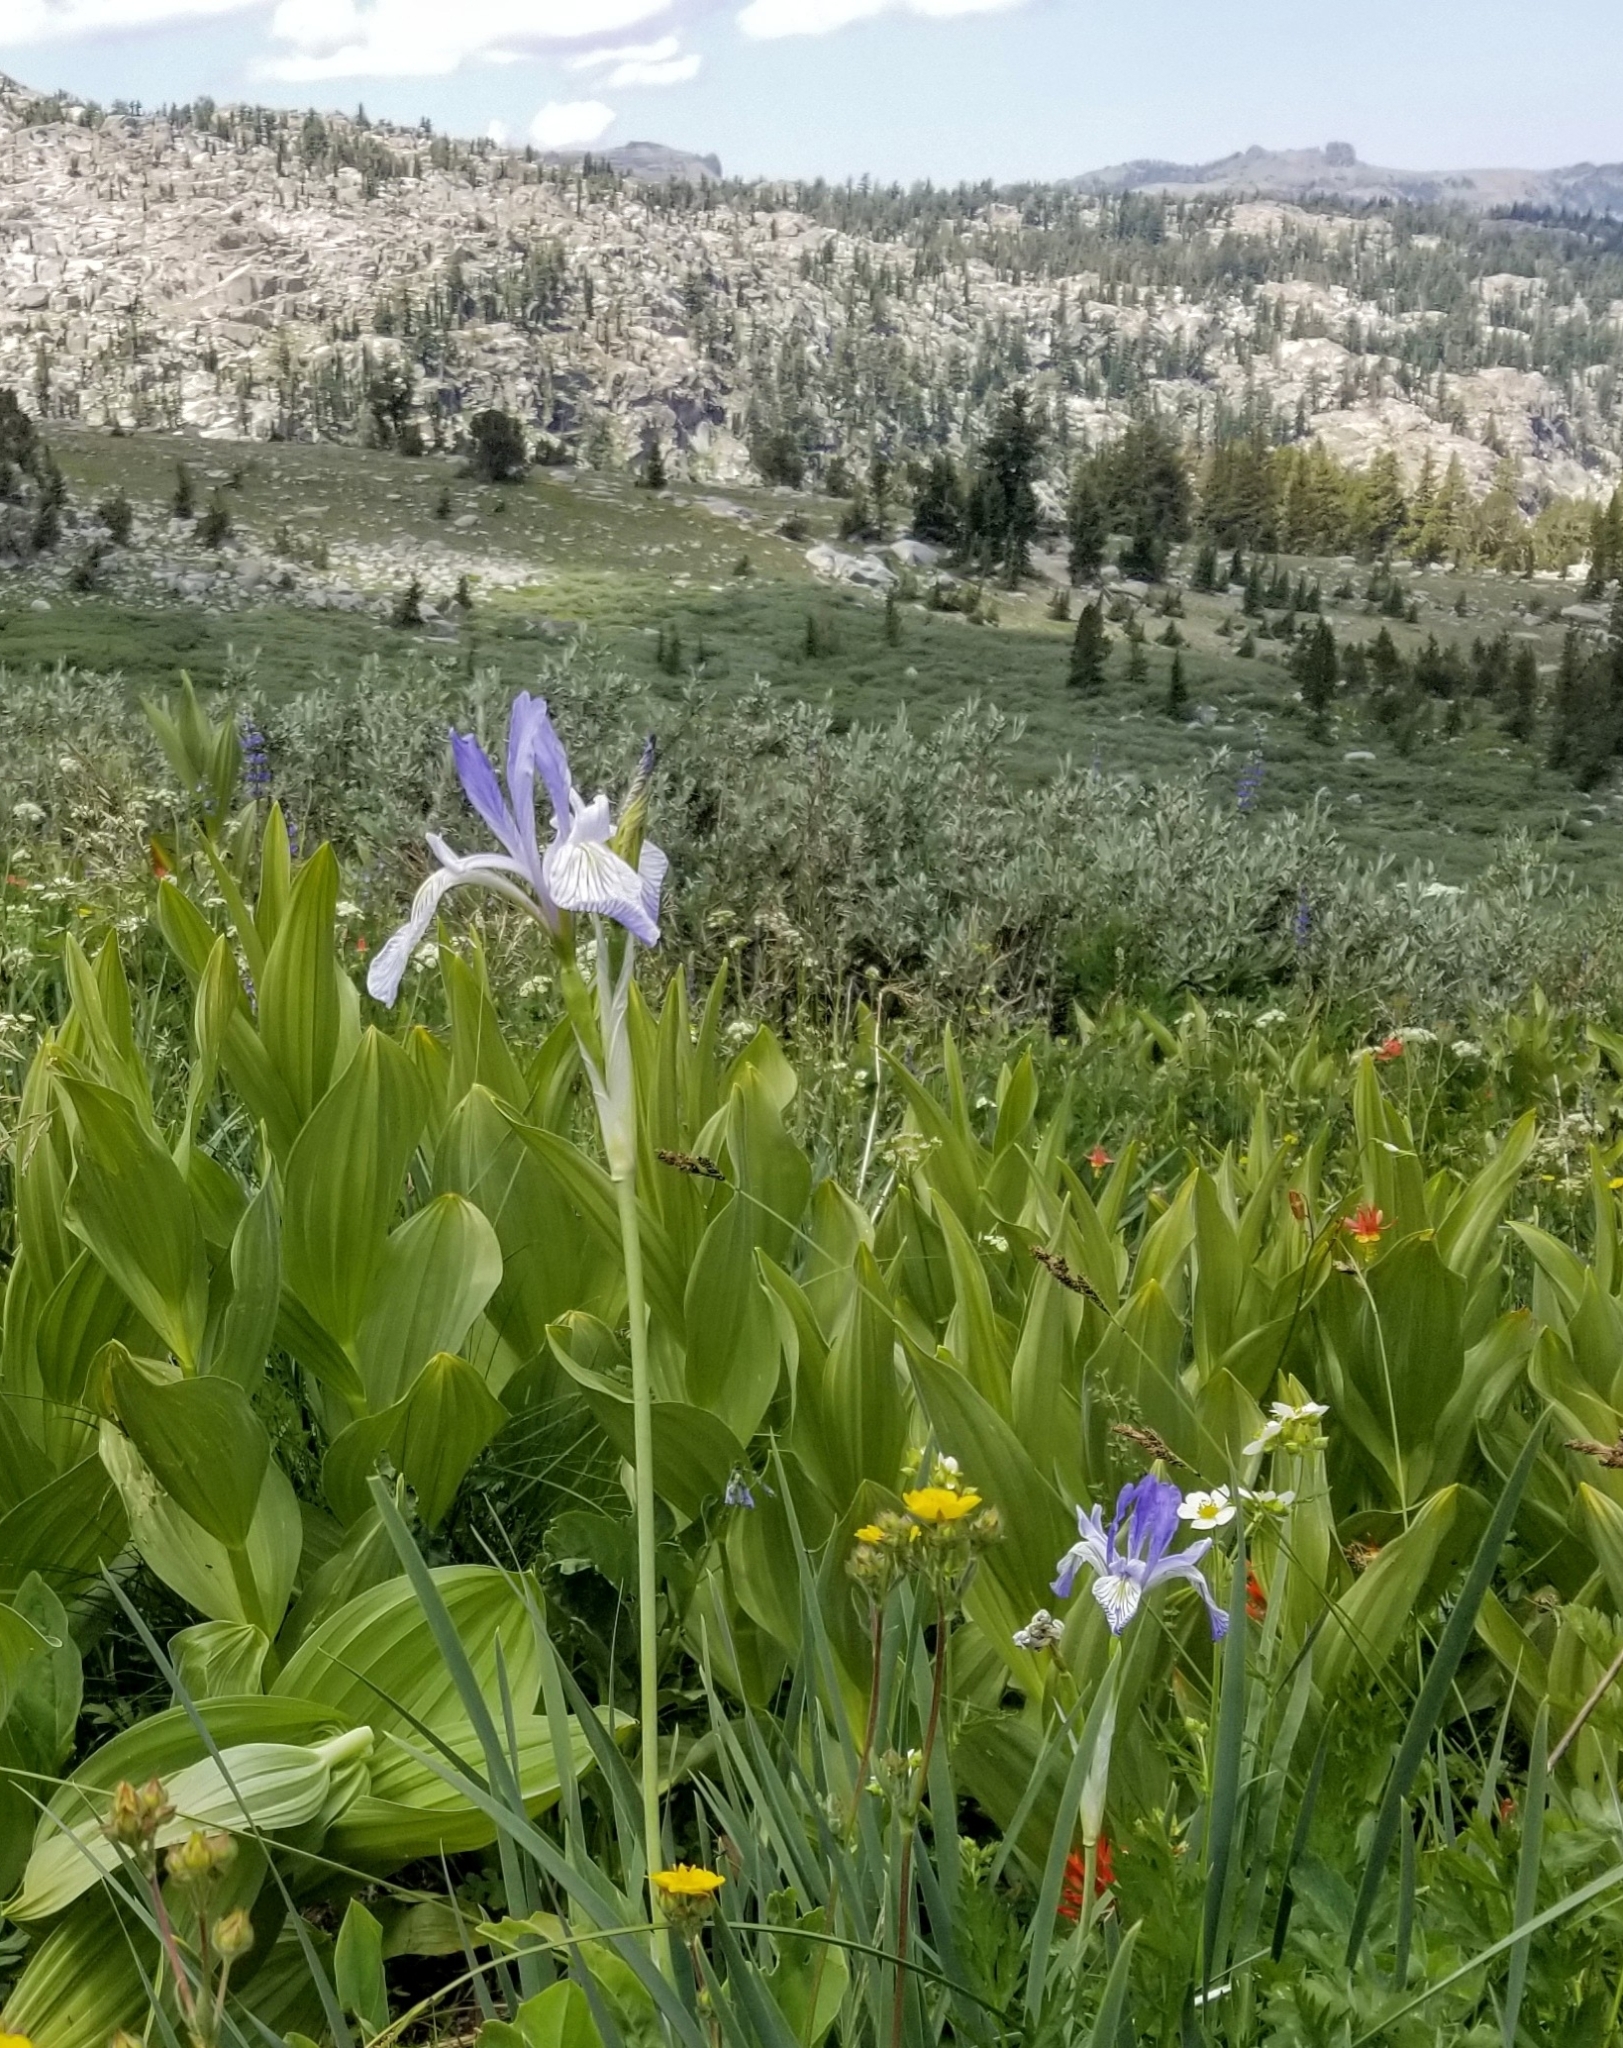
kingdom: Plantae
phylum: Tracheophyta
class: Liliopsida
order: Asparagales
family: Iridaceae
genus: Iris
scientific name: Iris missouriensis
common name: Rocky mountain iris
